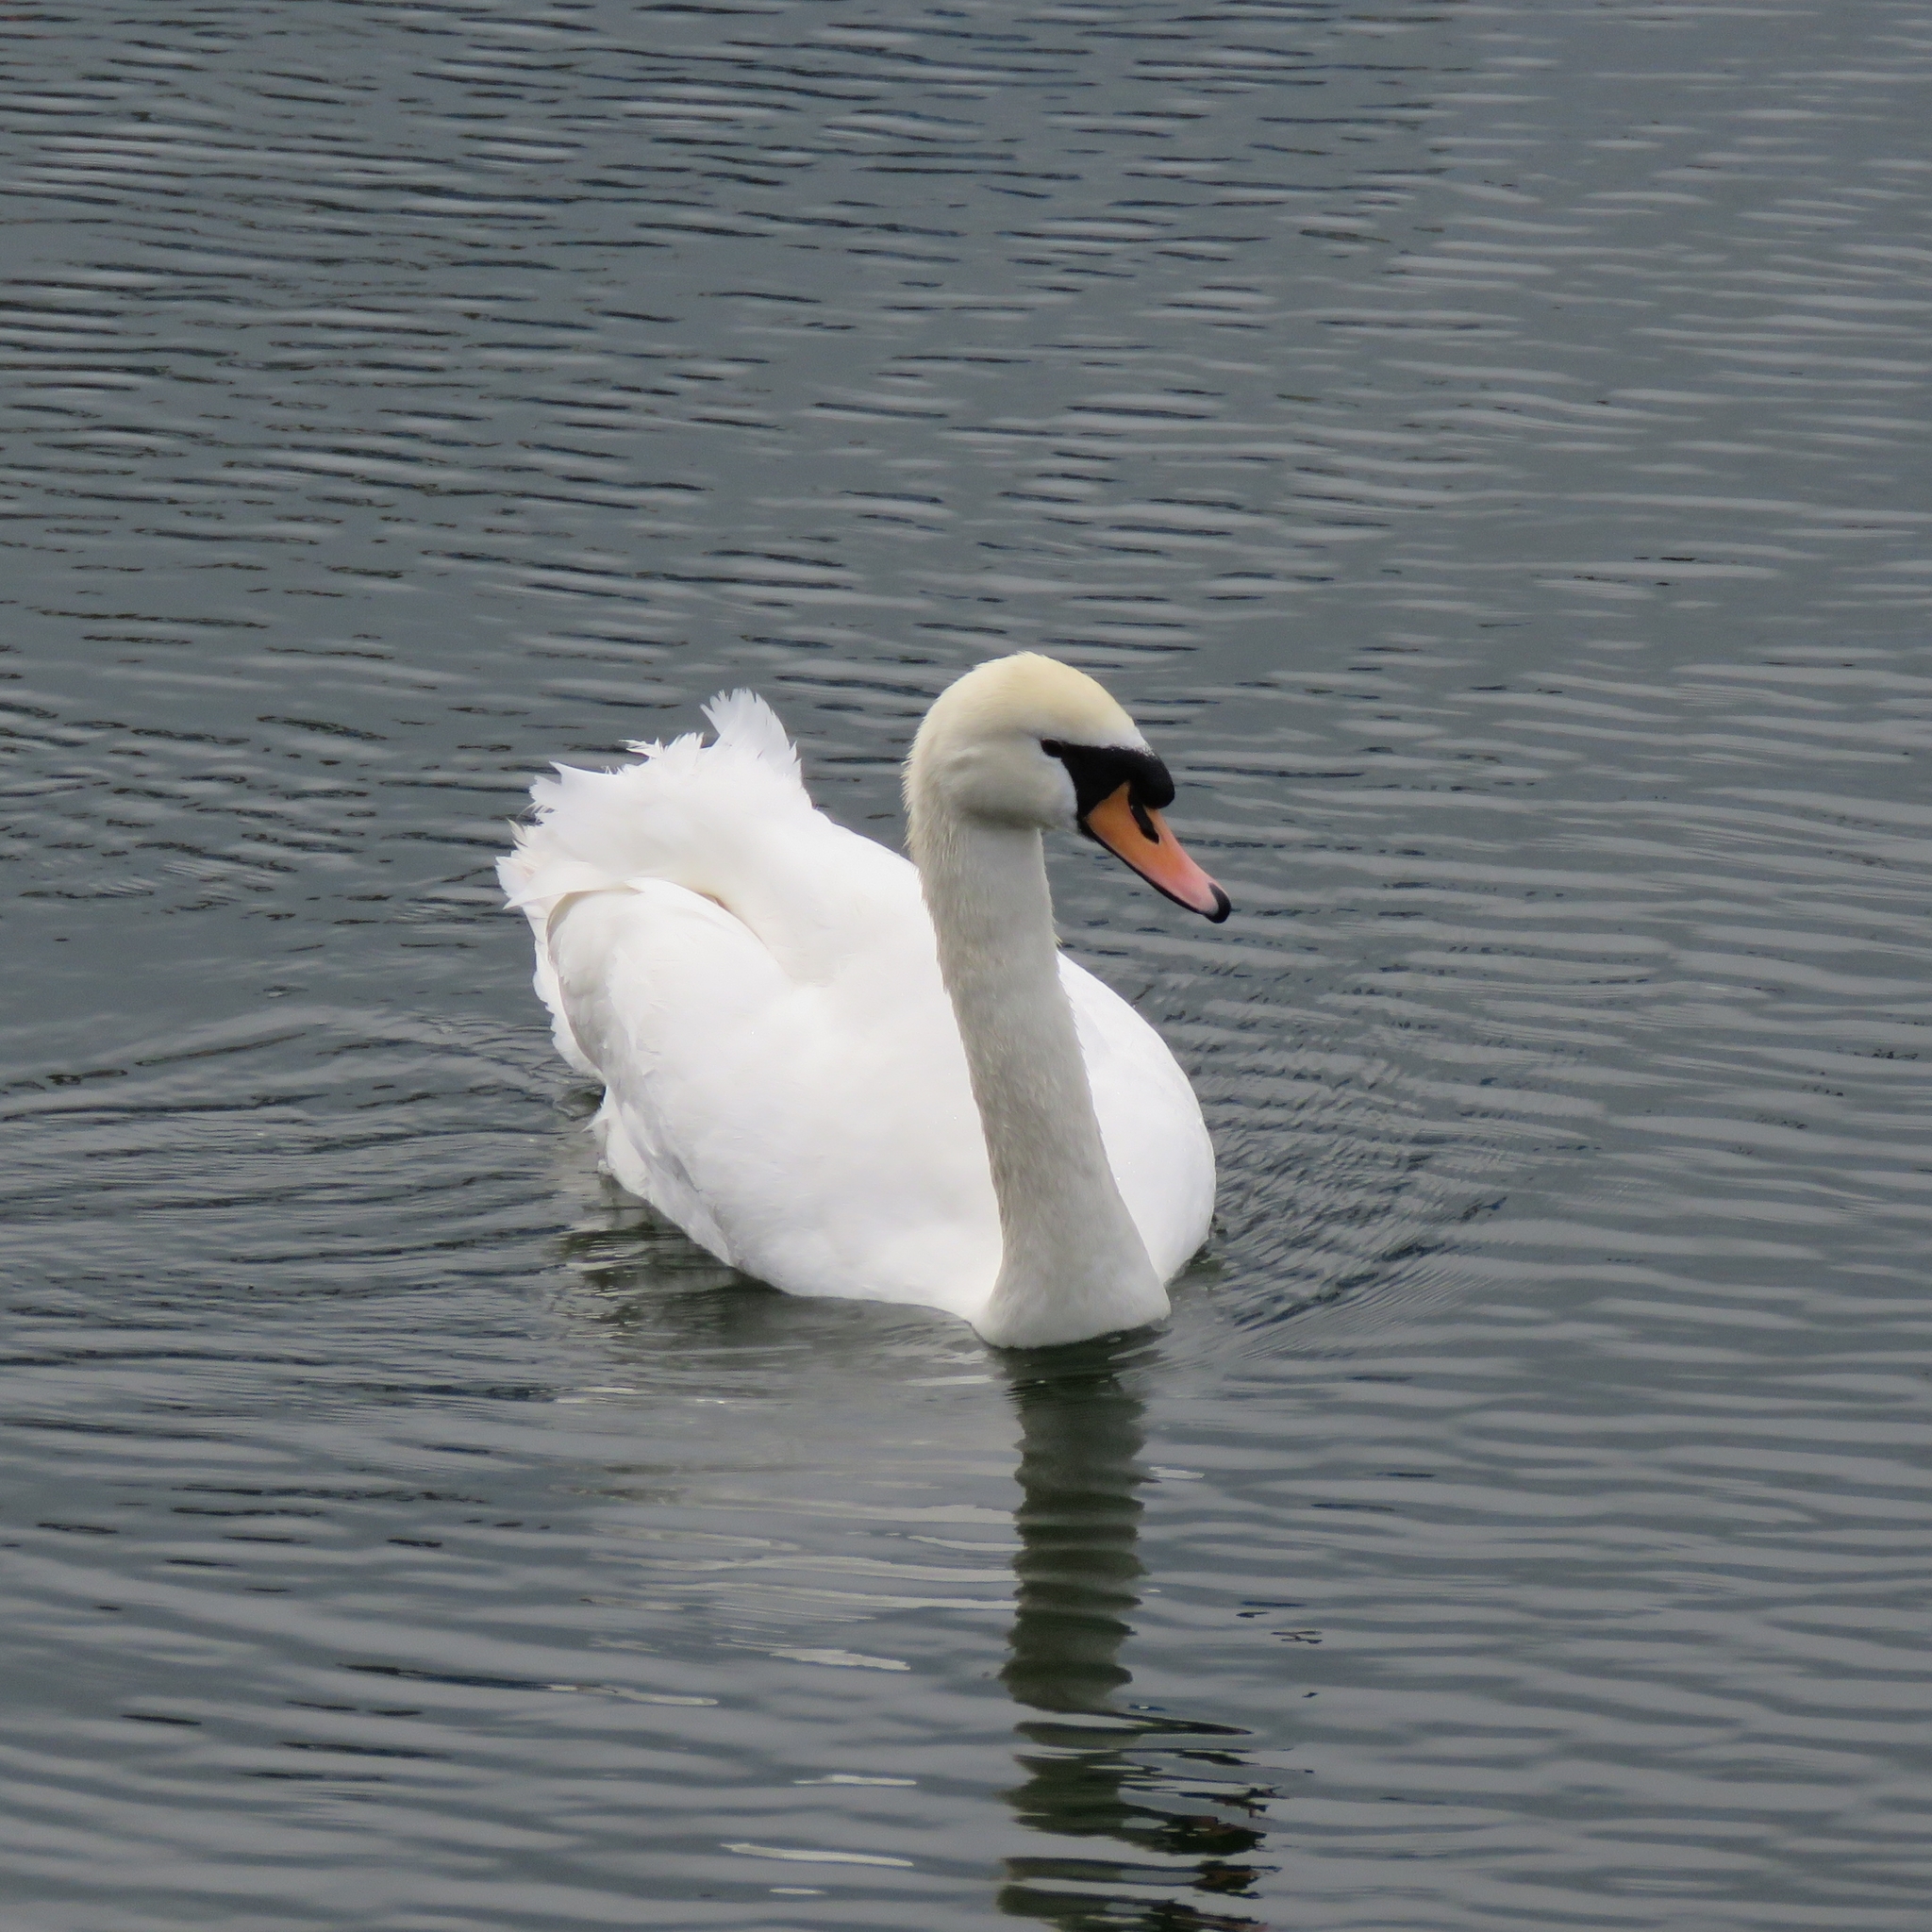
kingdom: Animalia
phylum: Chordata
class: Aves
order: Anseriformes
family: Anatidae
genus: Cygnus
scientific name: Cygnus olor
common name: Mute swan
